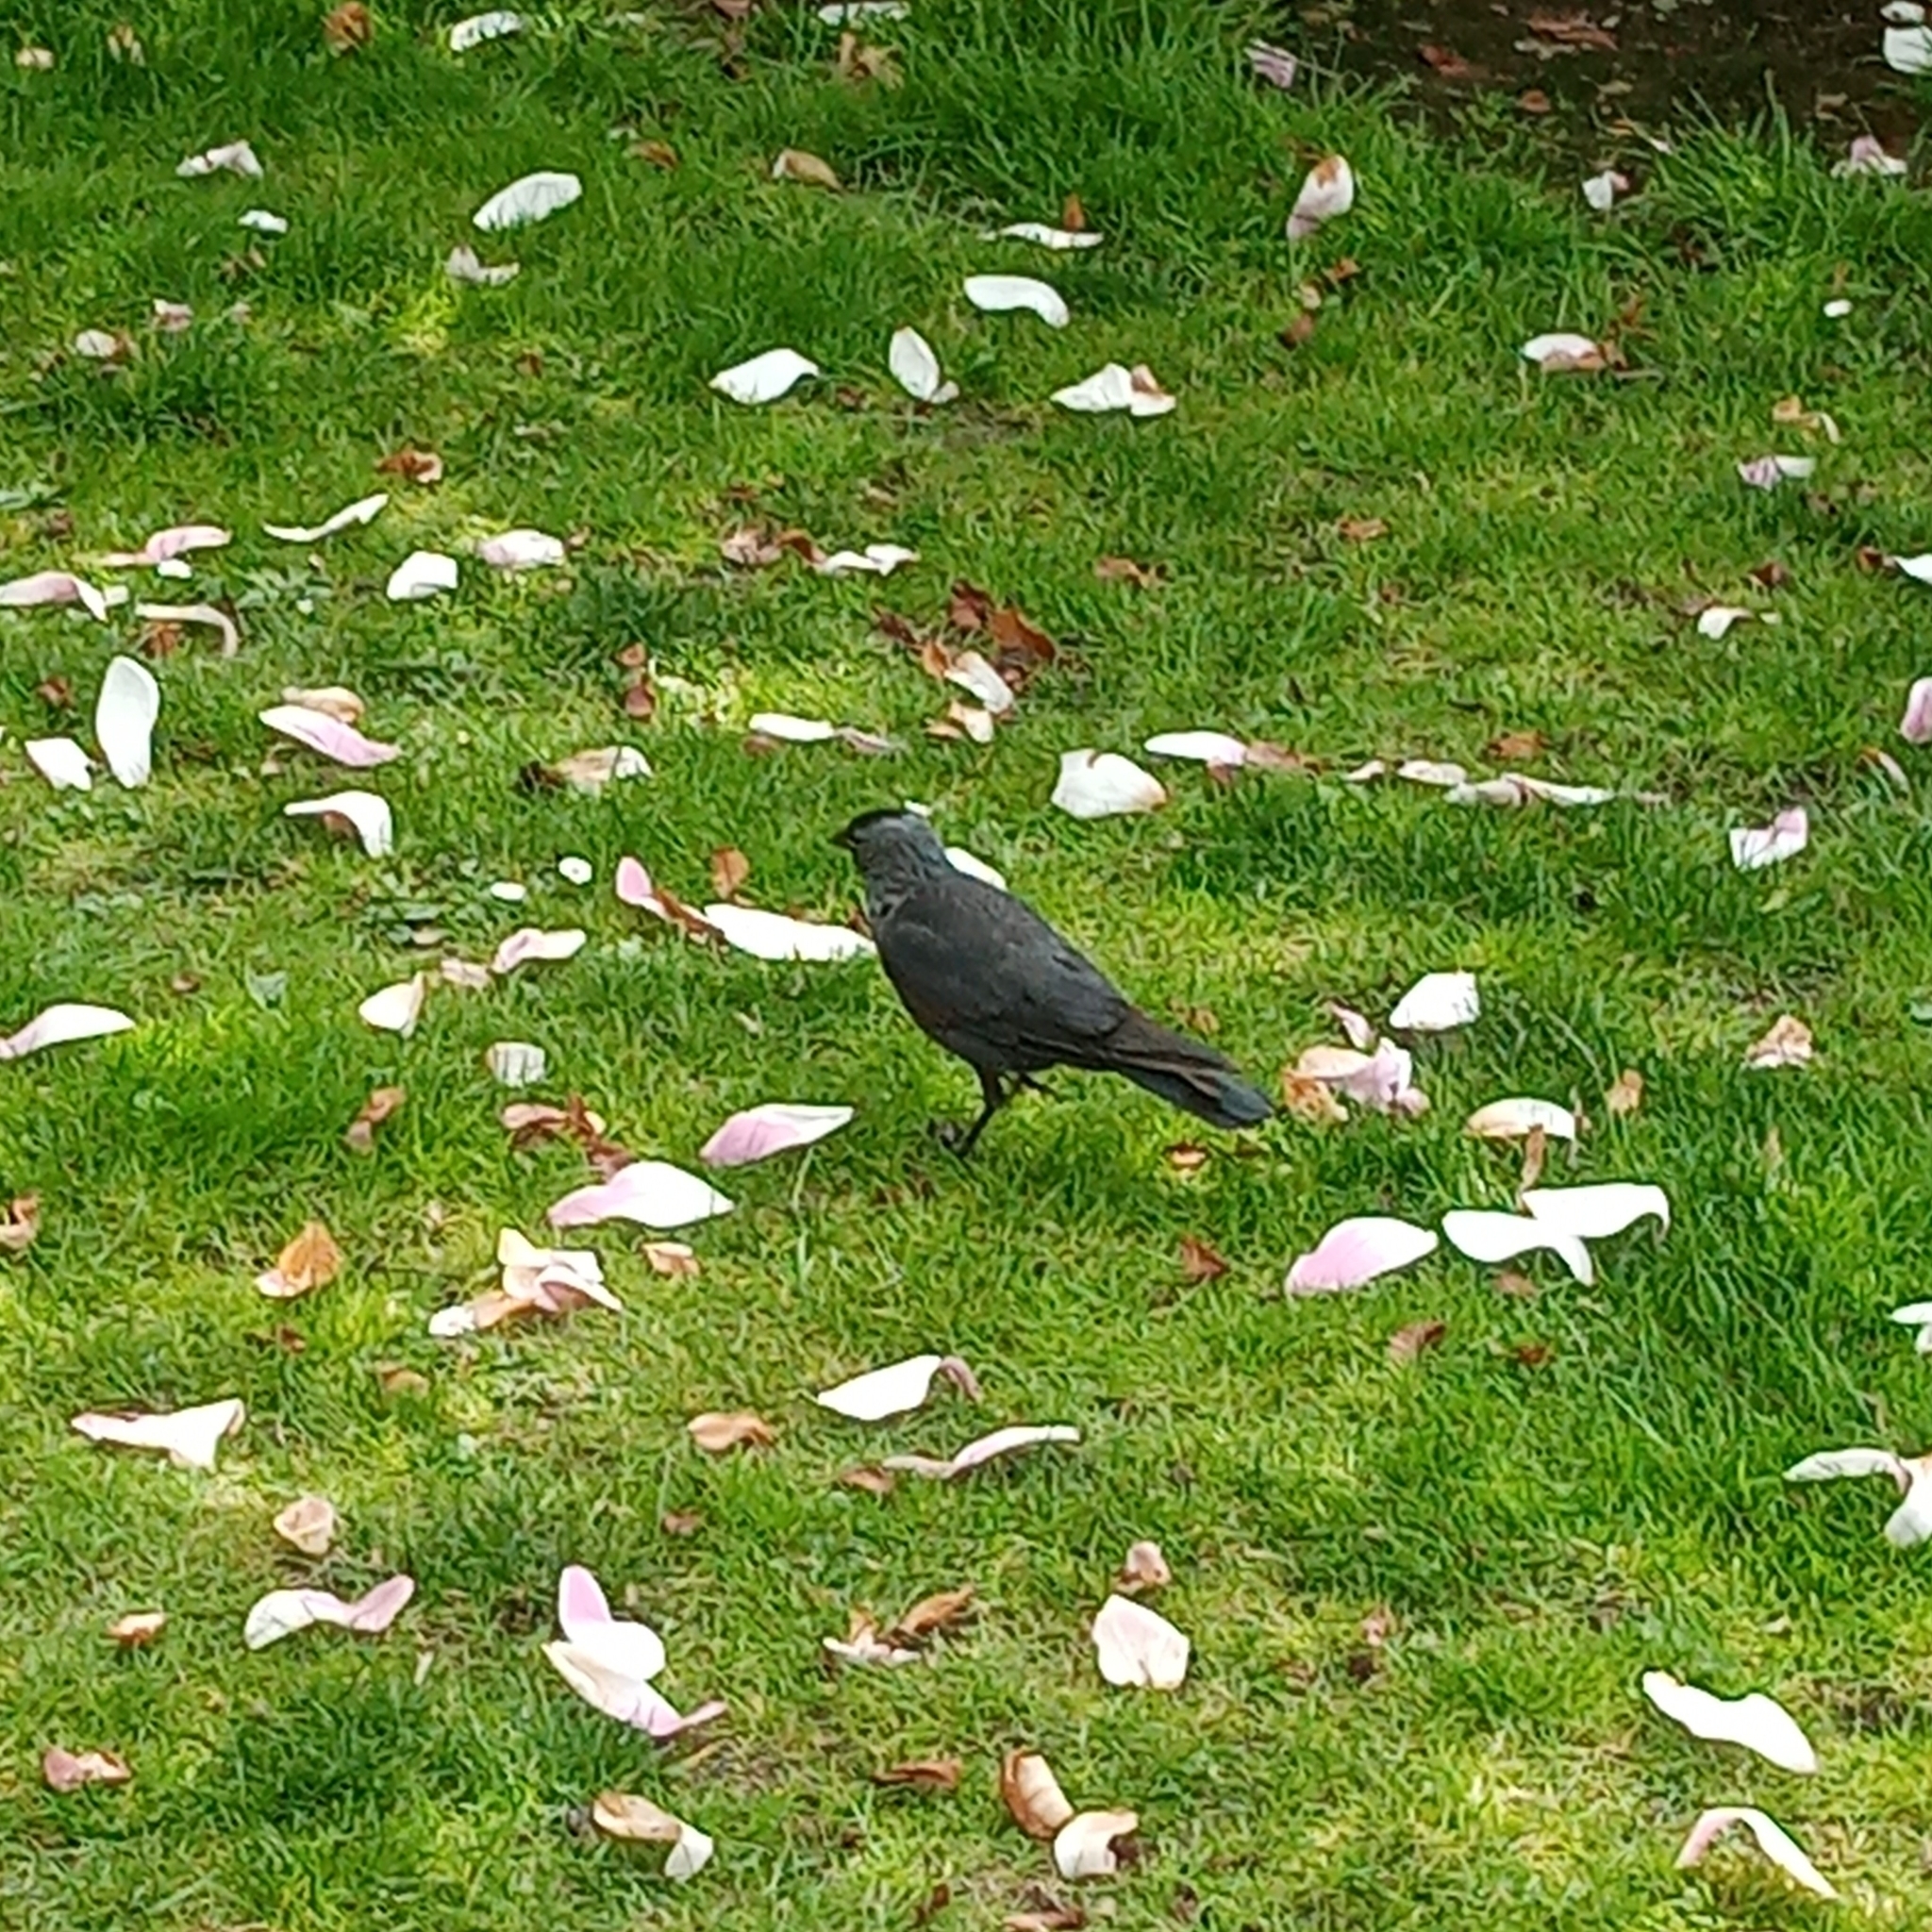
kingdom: Animalia
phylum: Chordata
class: Aves
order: Passeriformes
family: Corvidae
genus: Coloeus
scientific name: Coloeus monedula
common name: Western jackdaw
